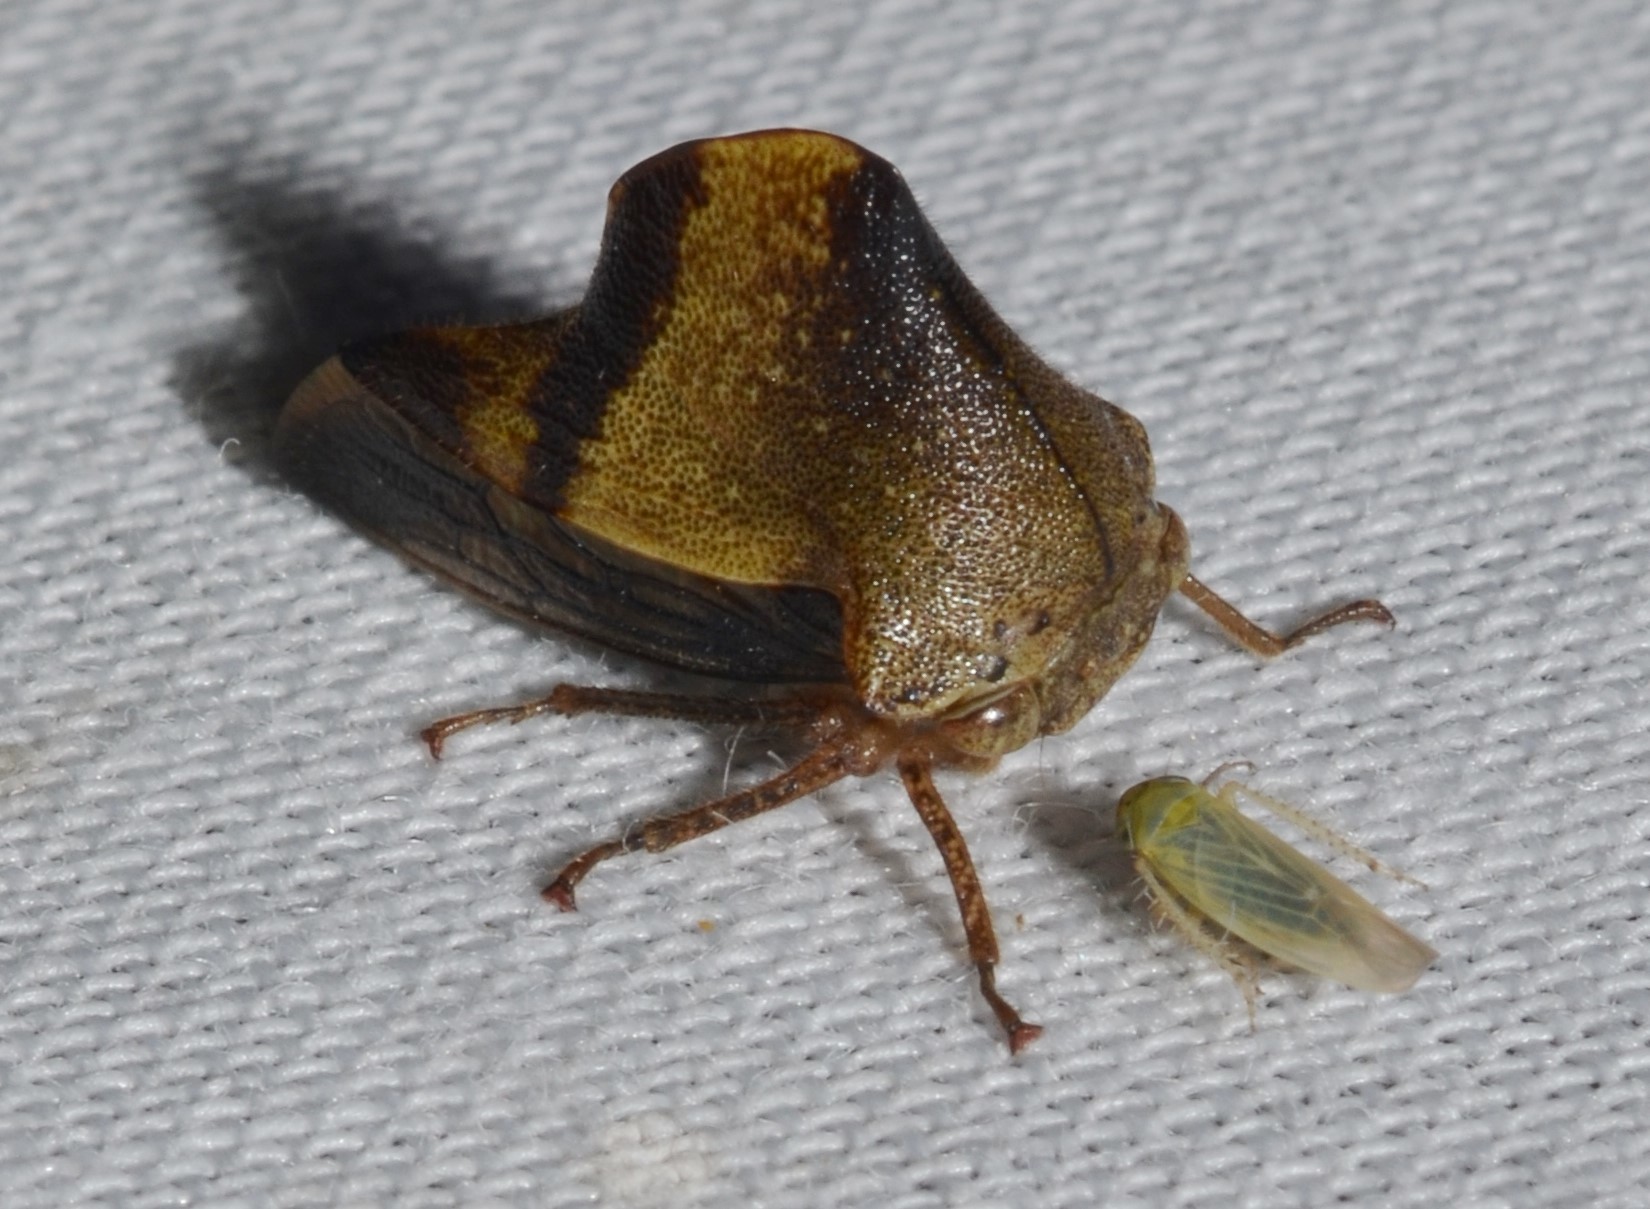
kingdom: Animalia
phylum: Arthropoda
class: Insecta
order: Hemiptera
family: Membracidae
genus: Helonica
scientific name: Helonica excelsa
